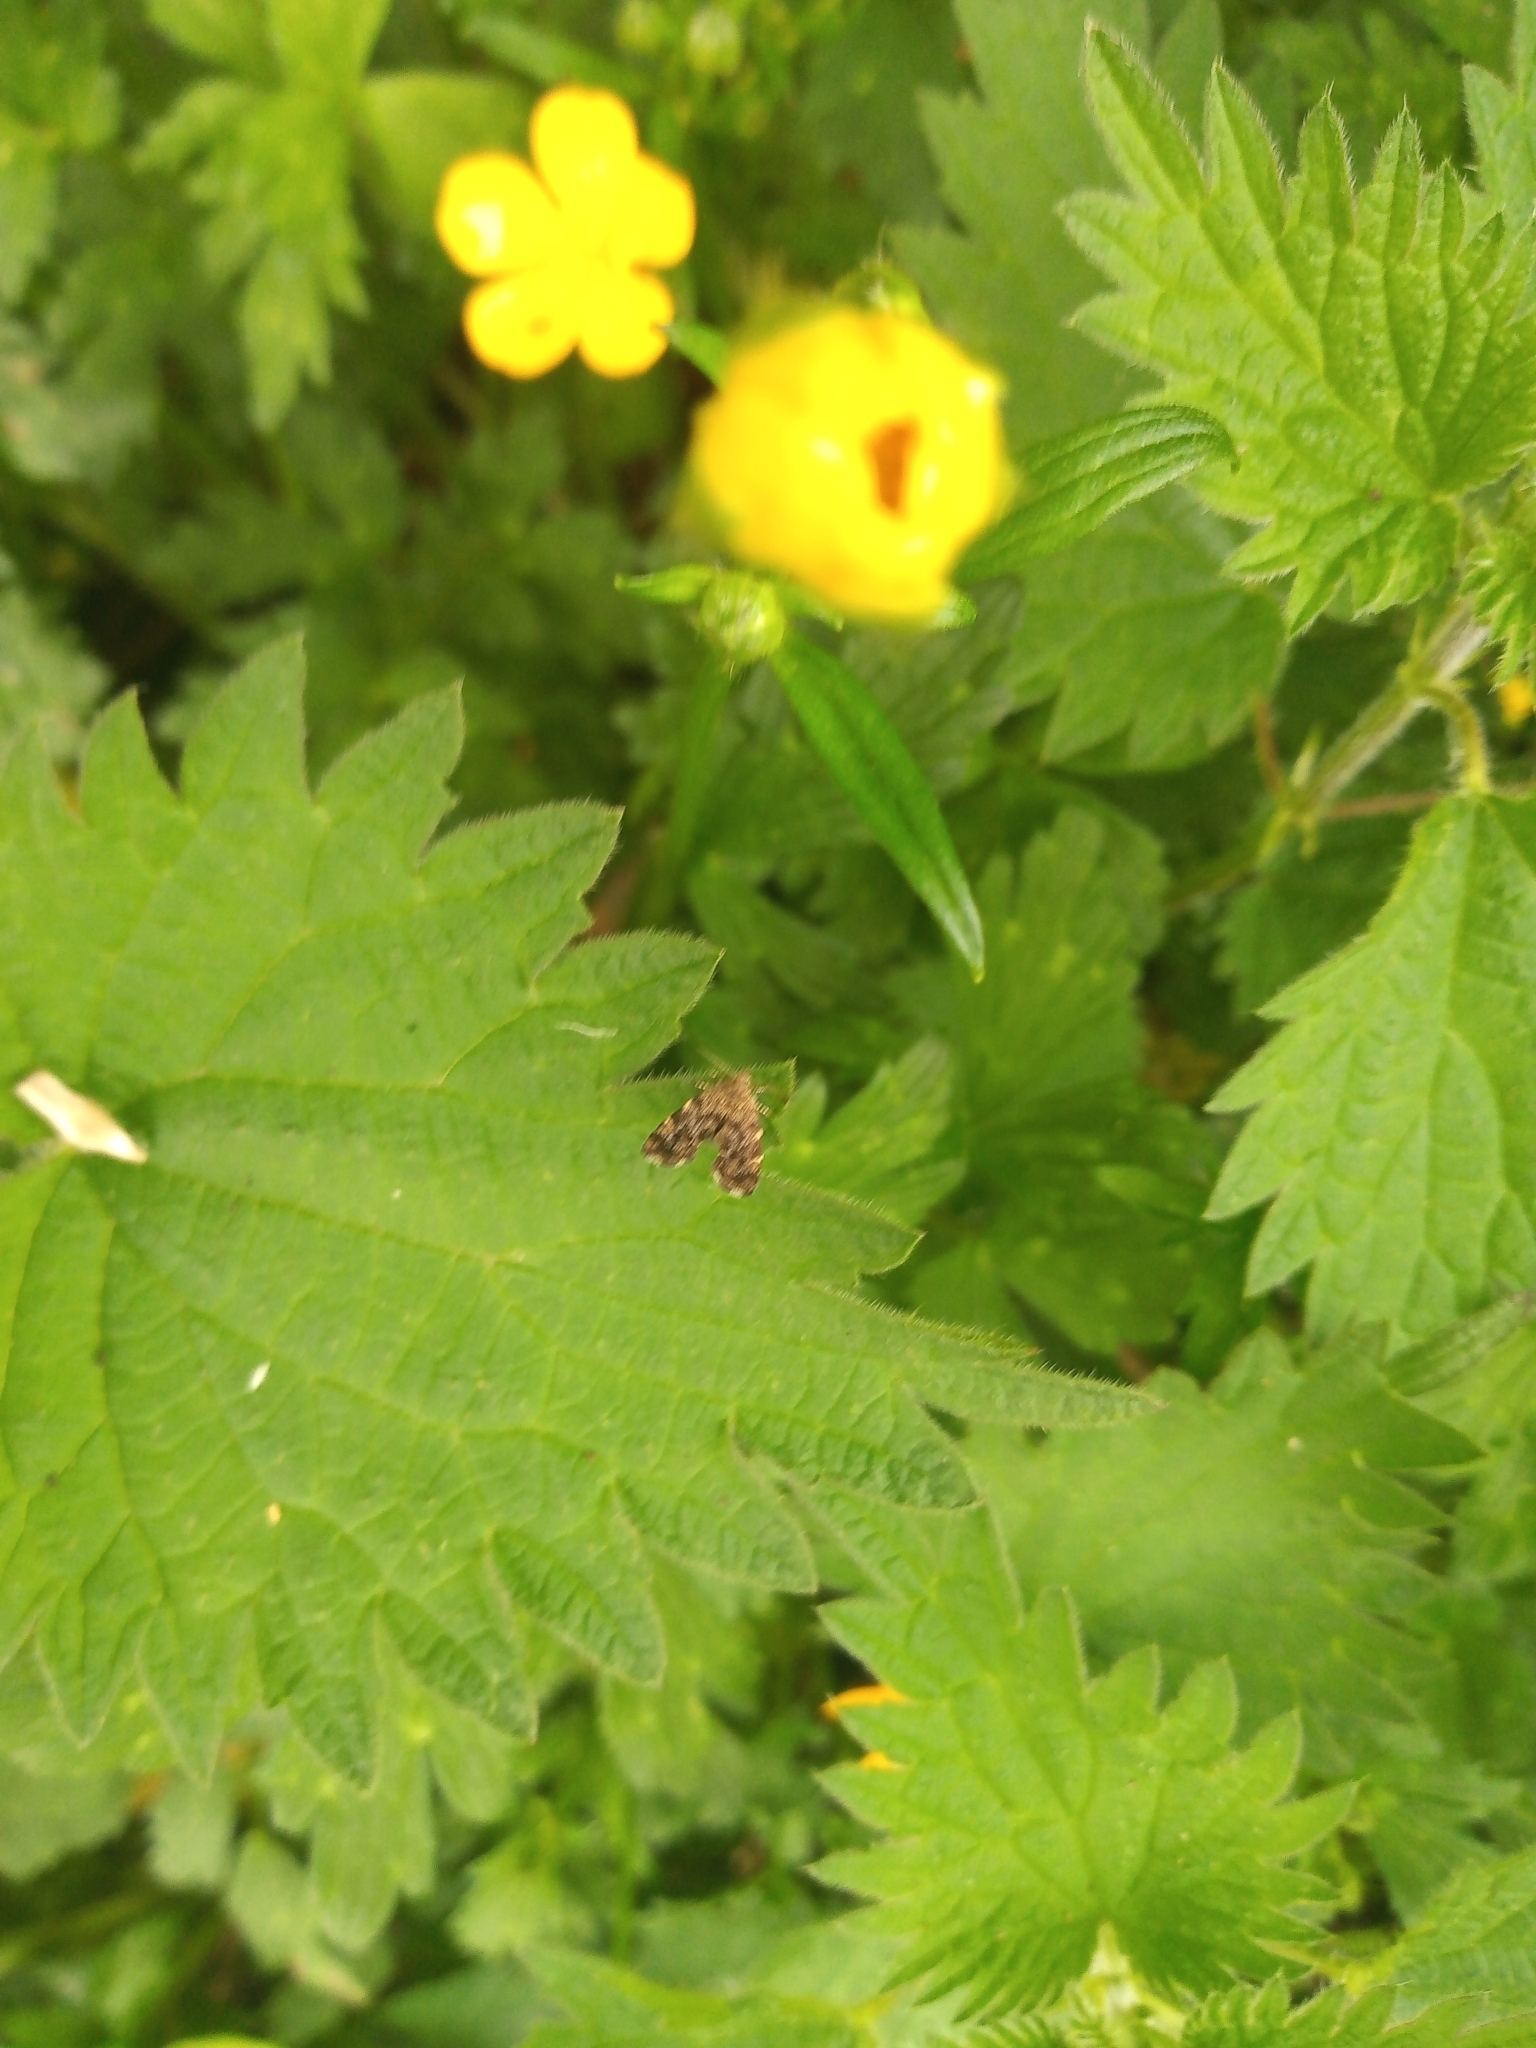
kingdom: Animalia
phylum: Arthropoda
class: Insecta
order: Lepidoptera
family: Choreutidae
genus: Anthophila
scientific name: Anthophila fabriciana
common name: Nettle-tap
